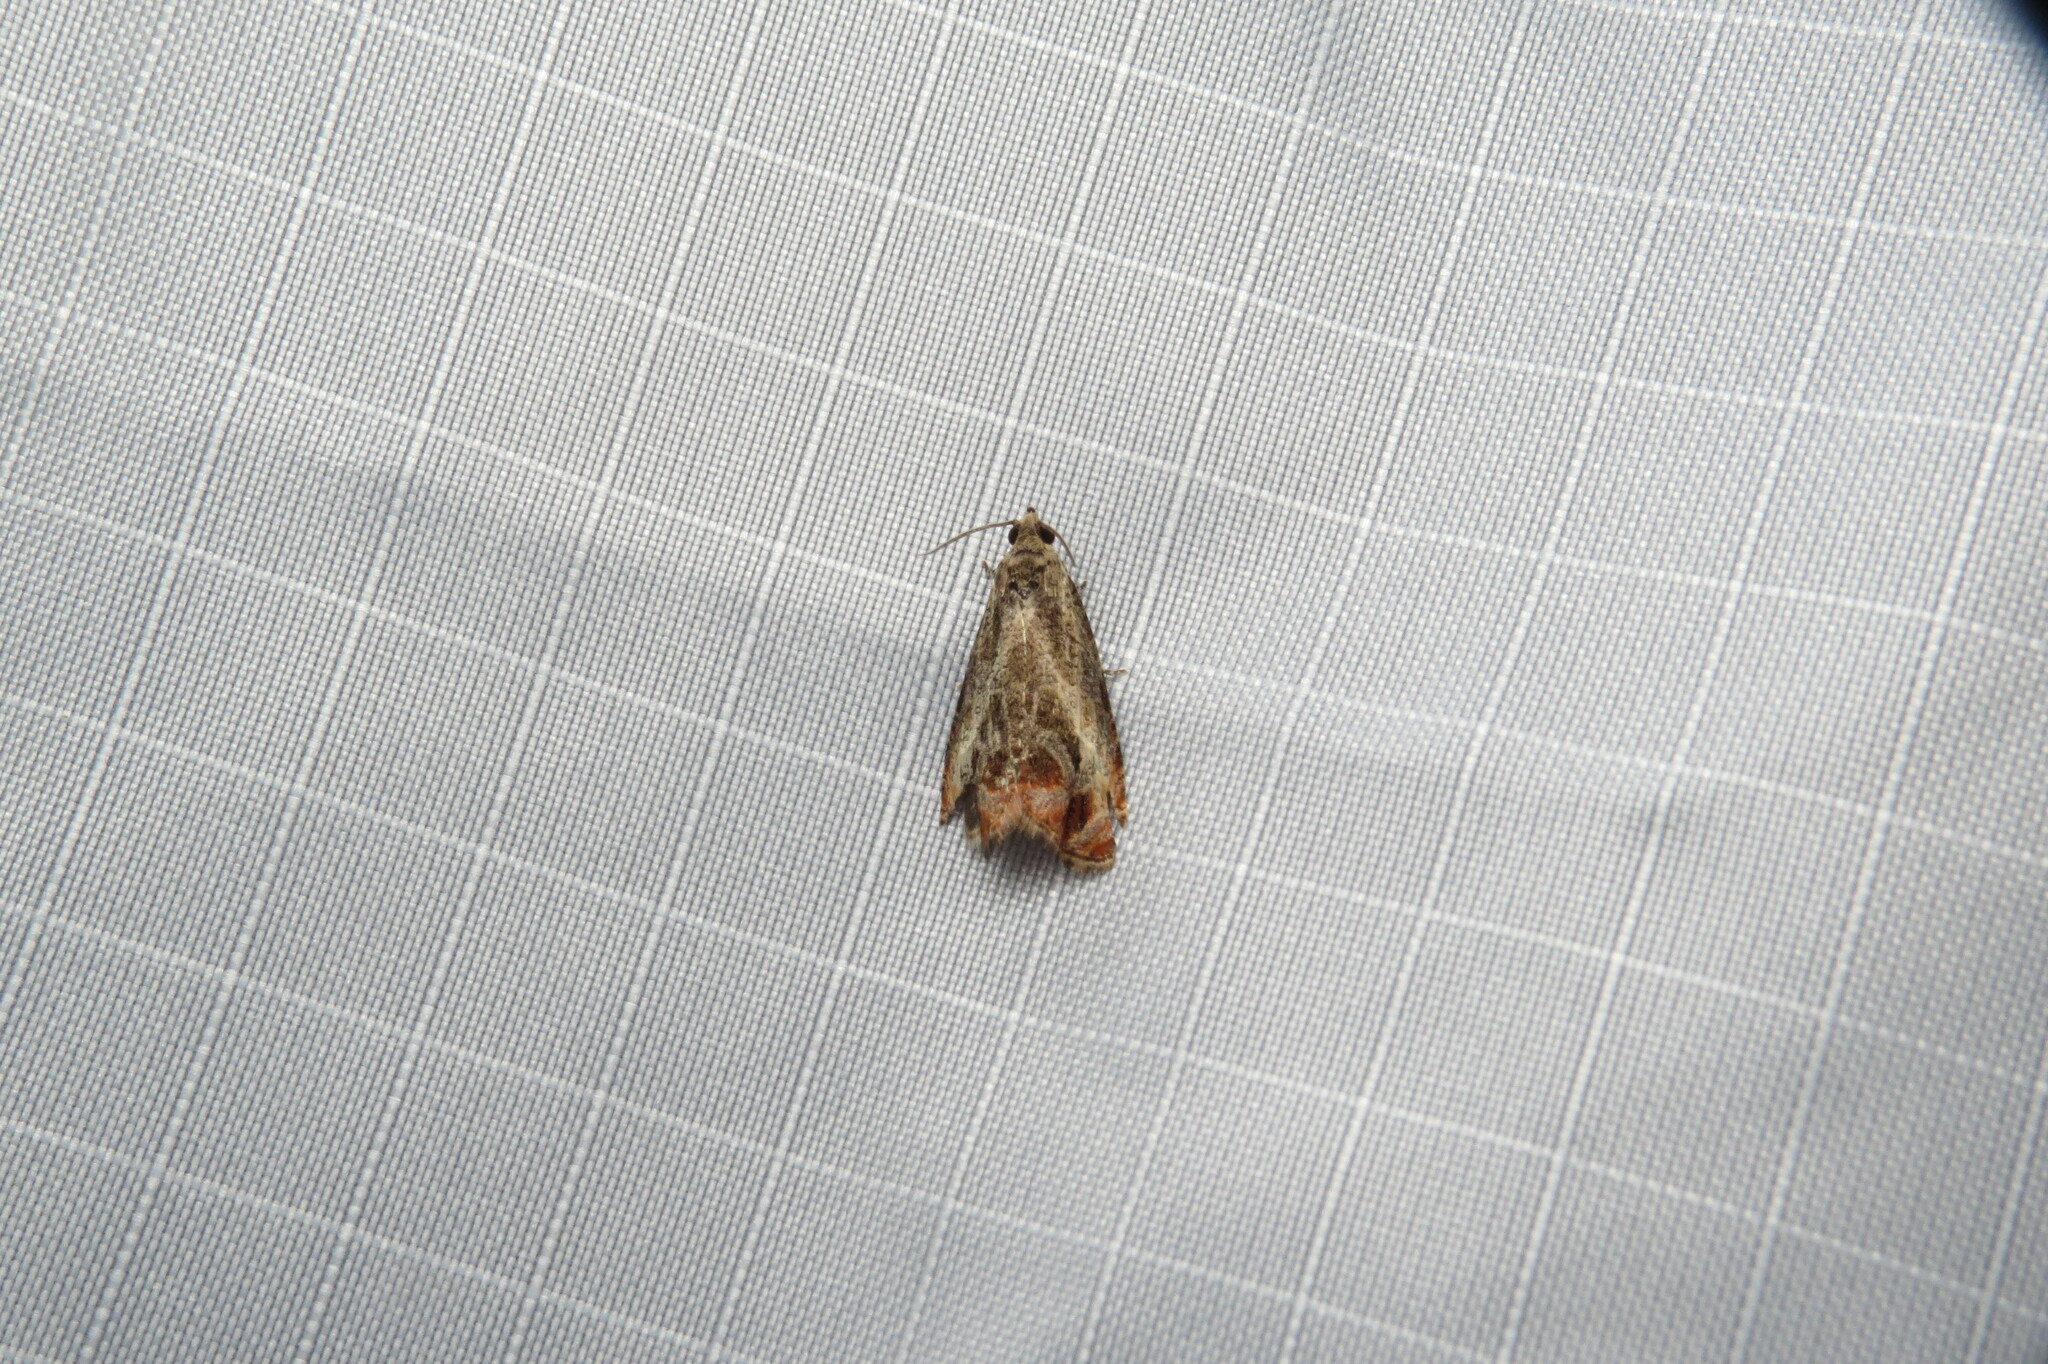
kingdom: Animalia
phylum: Arthropoda
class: Insecta
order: Lepidoptera
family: Tortricidae
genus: Olethreutes
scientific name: Olethreutes hamameliana
